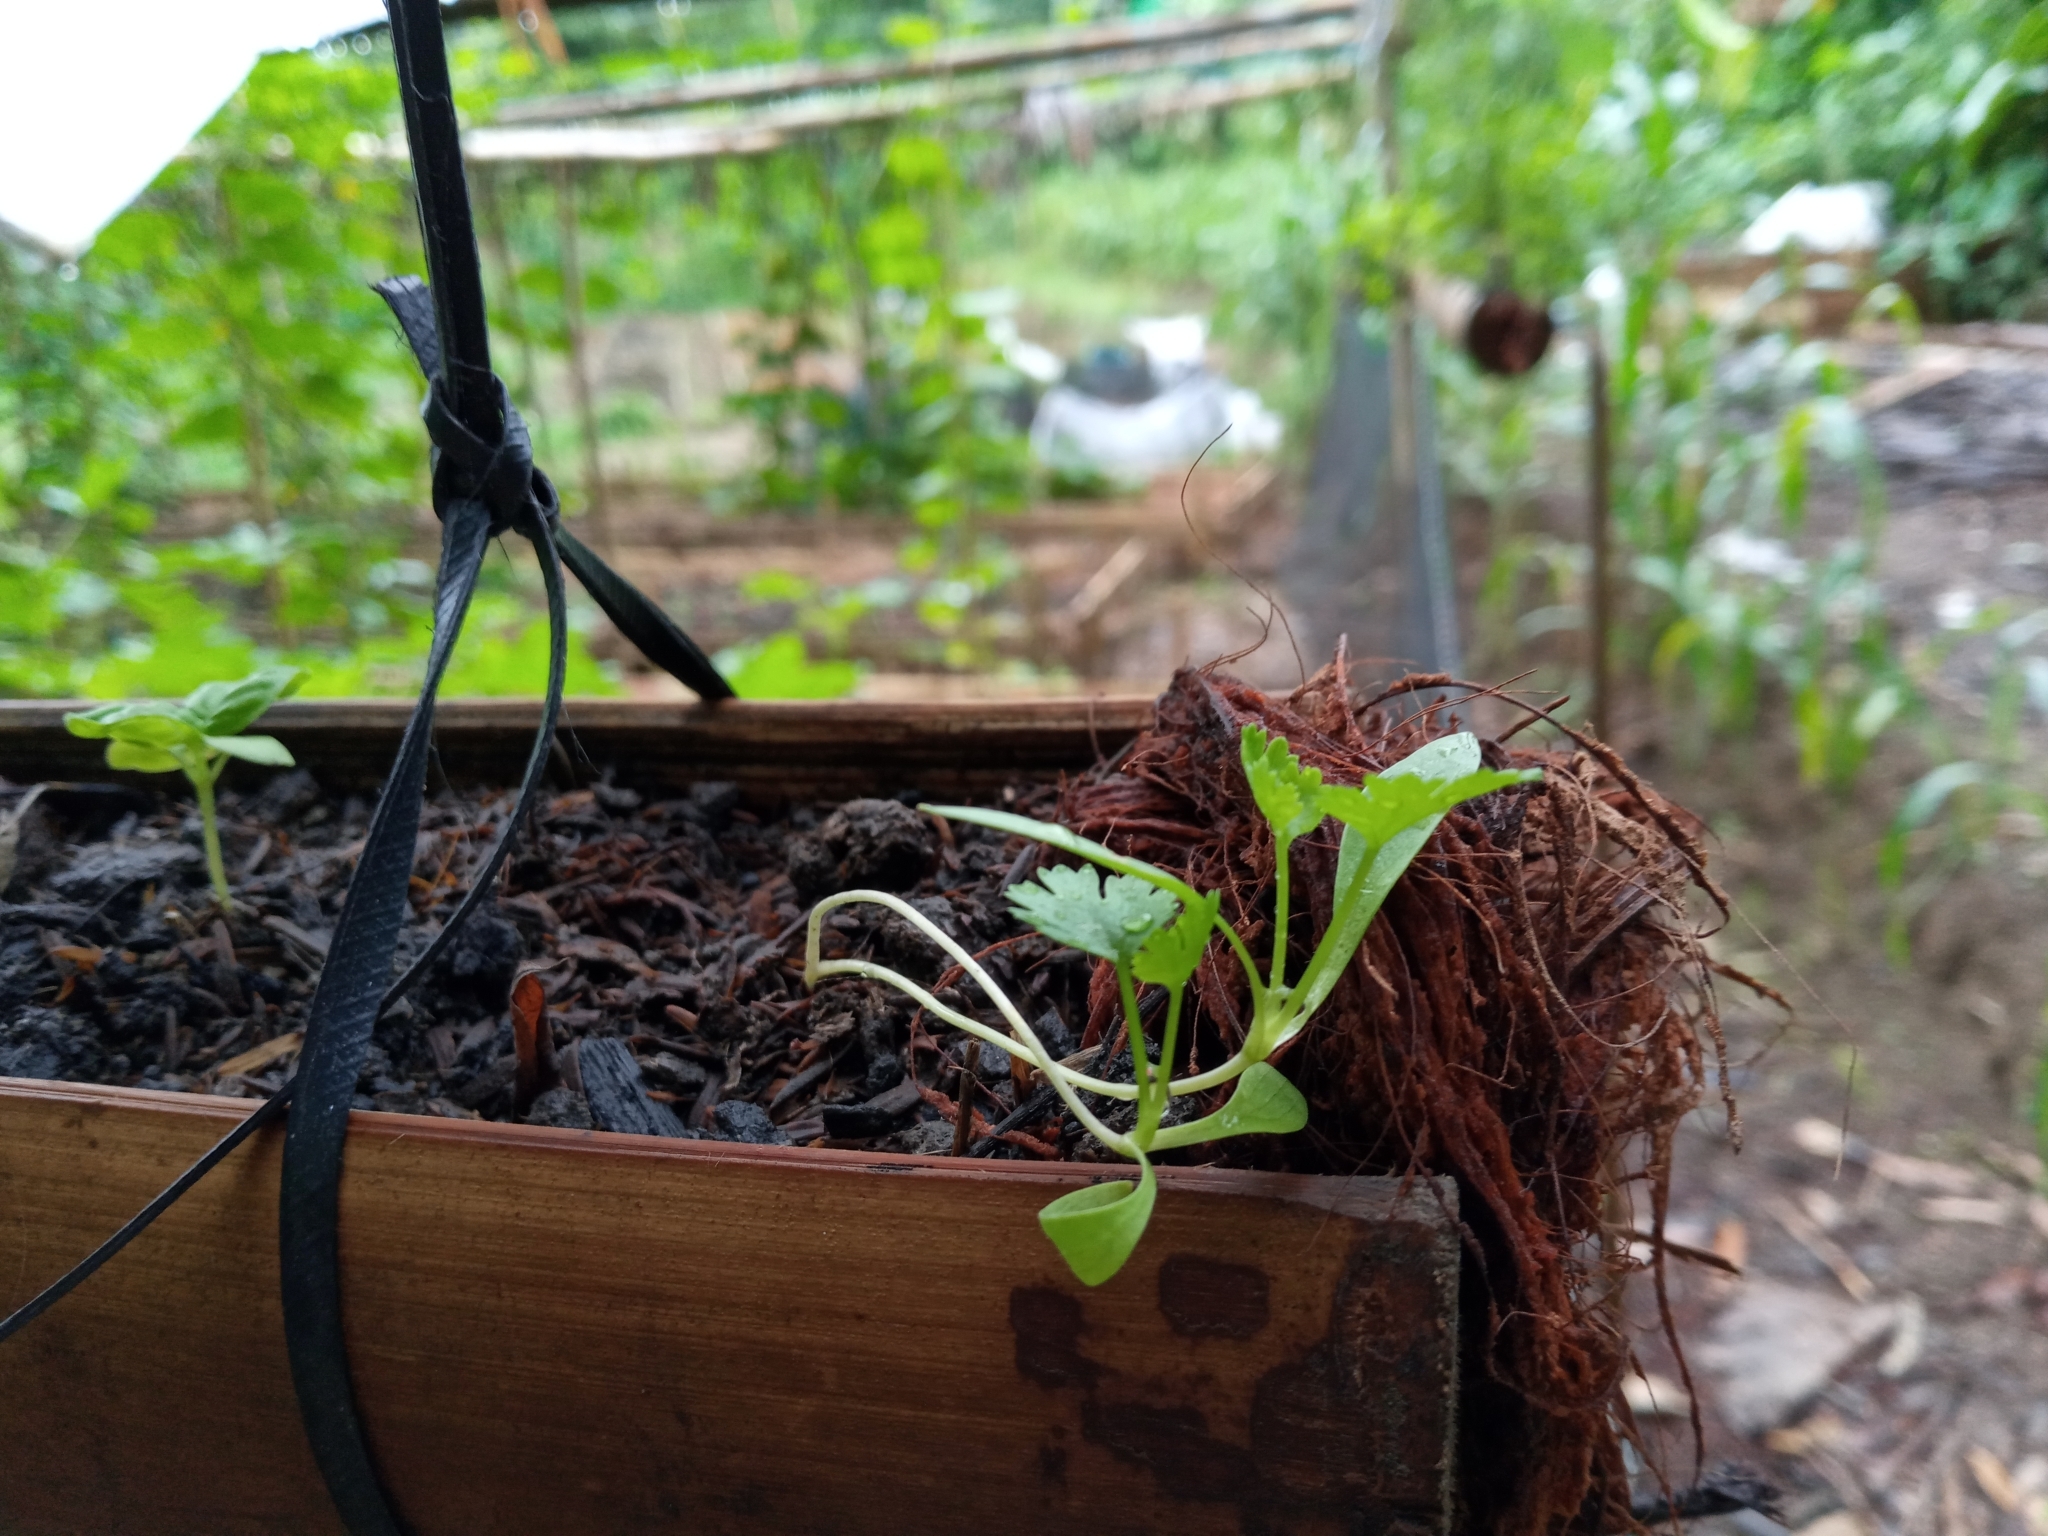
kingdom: Plantae
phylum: Tracheophyta
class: Magnoliopsida
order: Apiales
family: Apiaceae
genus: Coriandrum
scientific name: Coriandrum sativum
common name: Coriander
